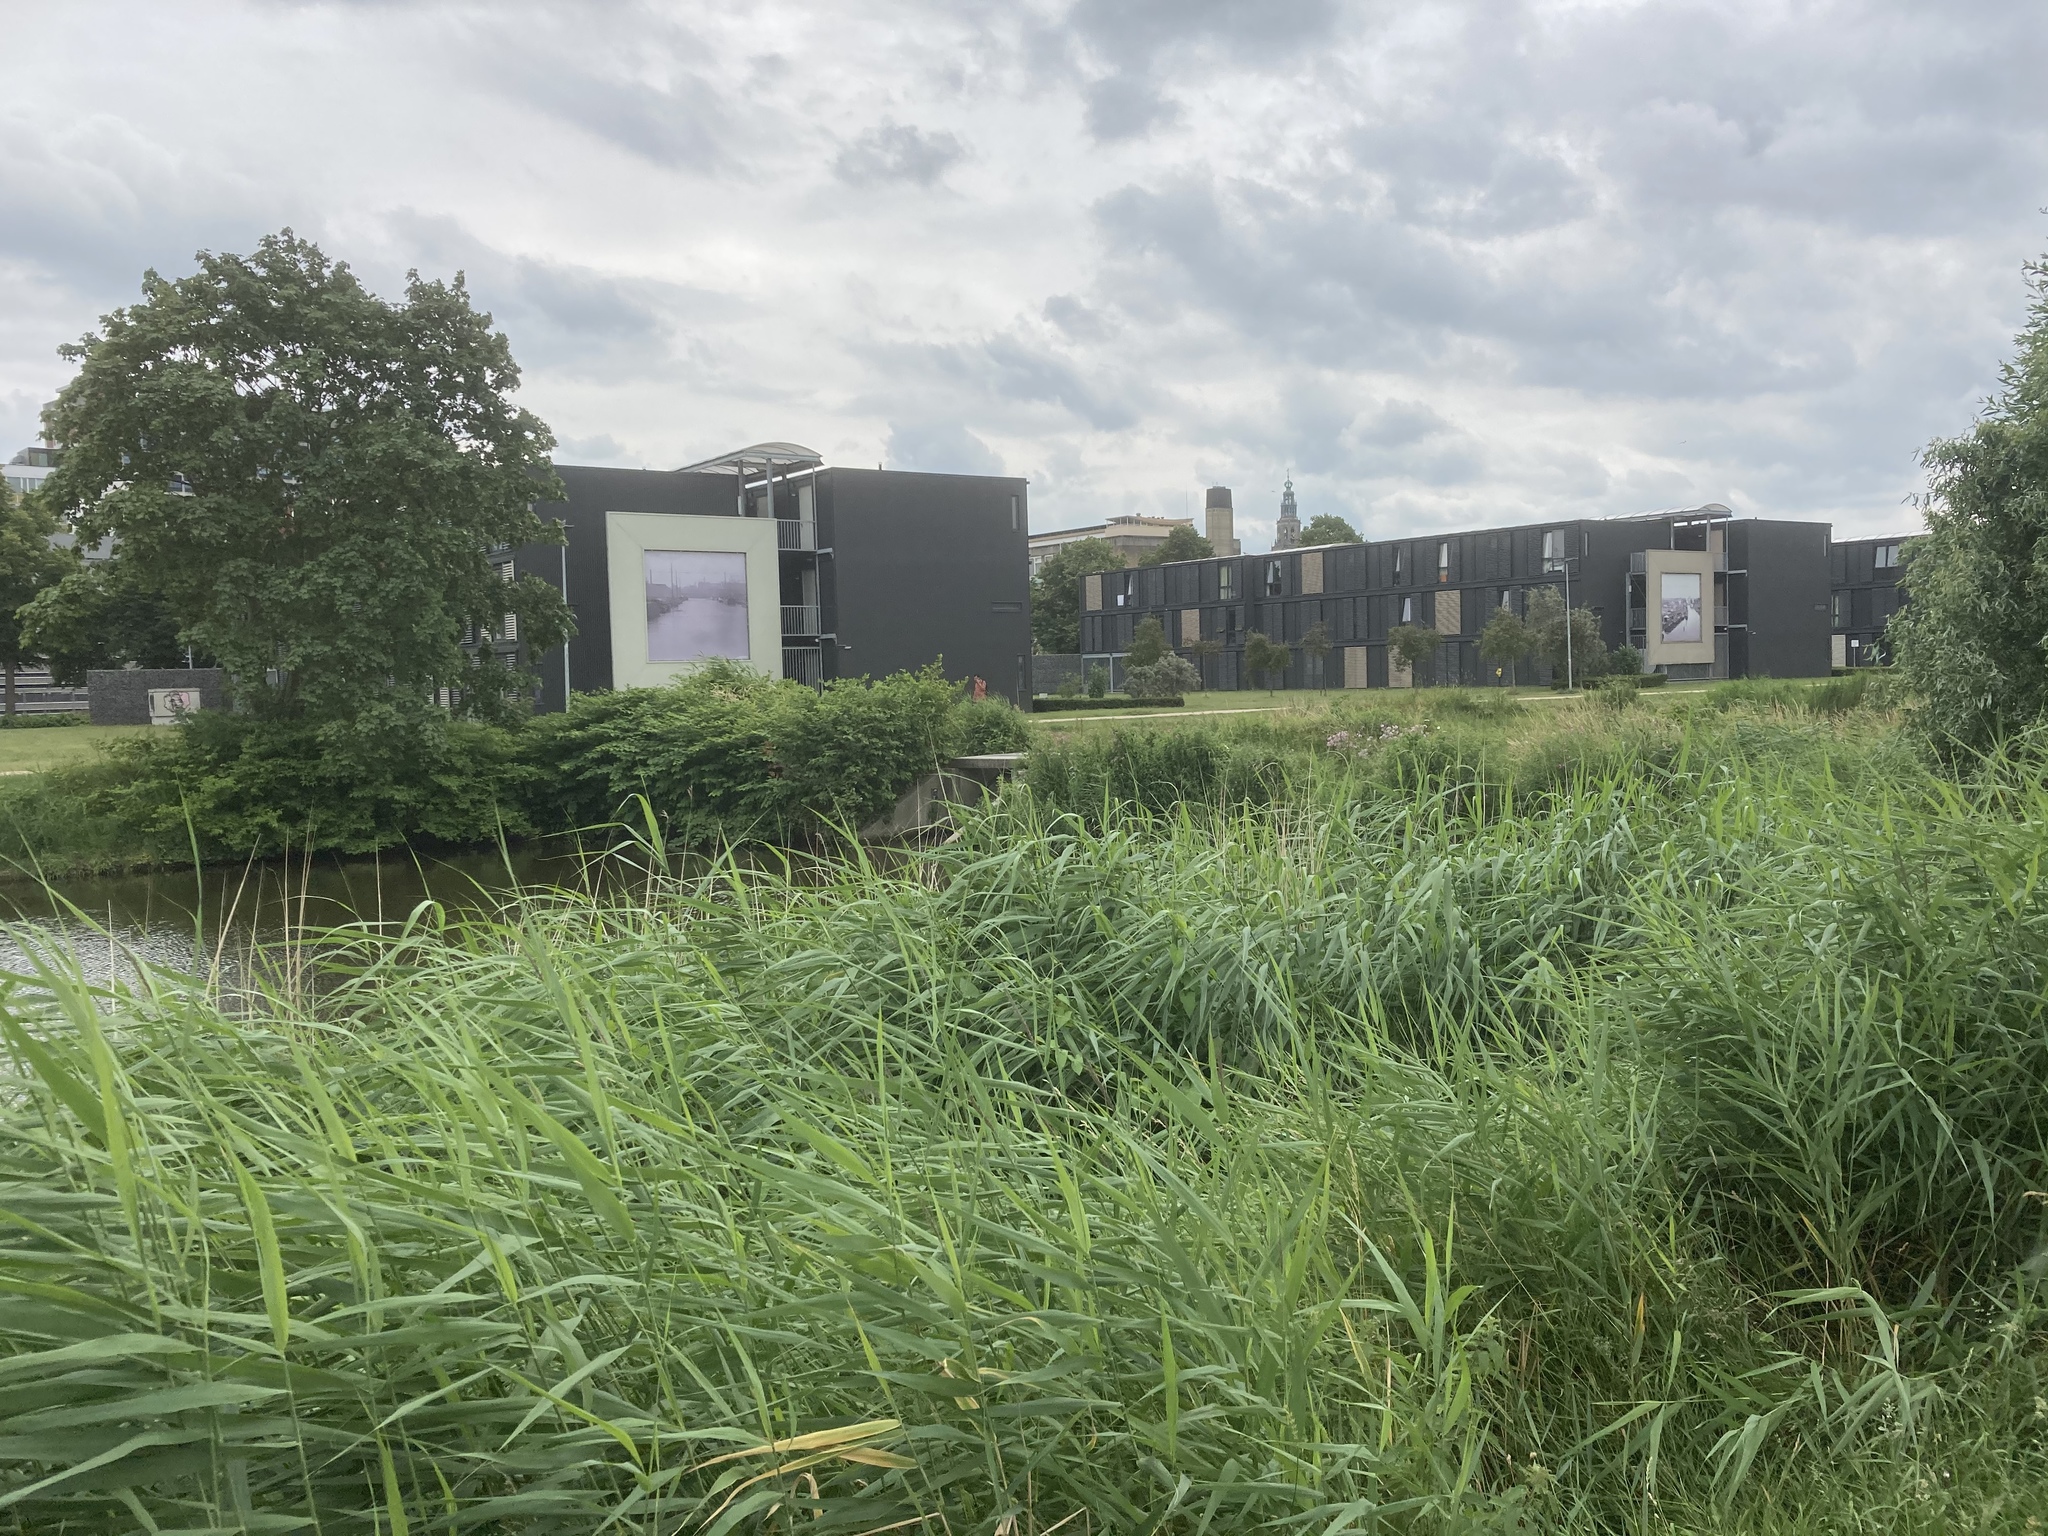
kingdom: Plantae
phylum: Tracheophyta
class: Liliopsida
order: Poales
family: Poaceae
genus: Phragmites
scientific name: Phragmites australis
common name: Common reed
